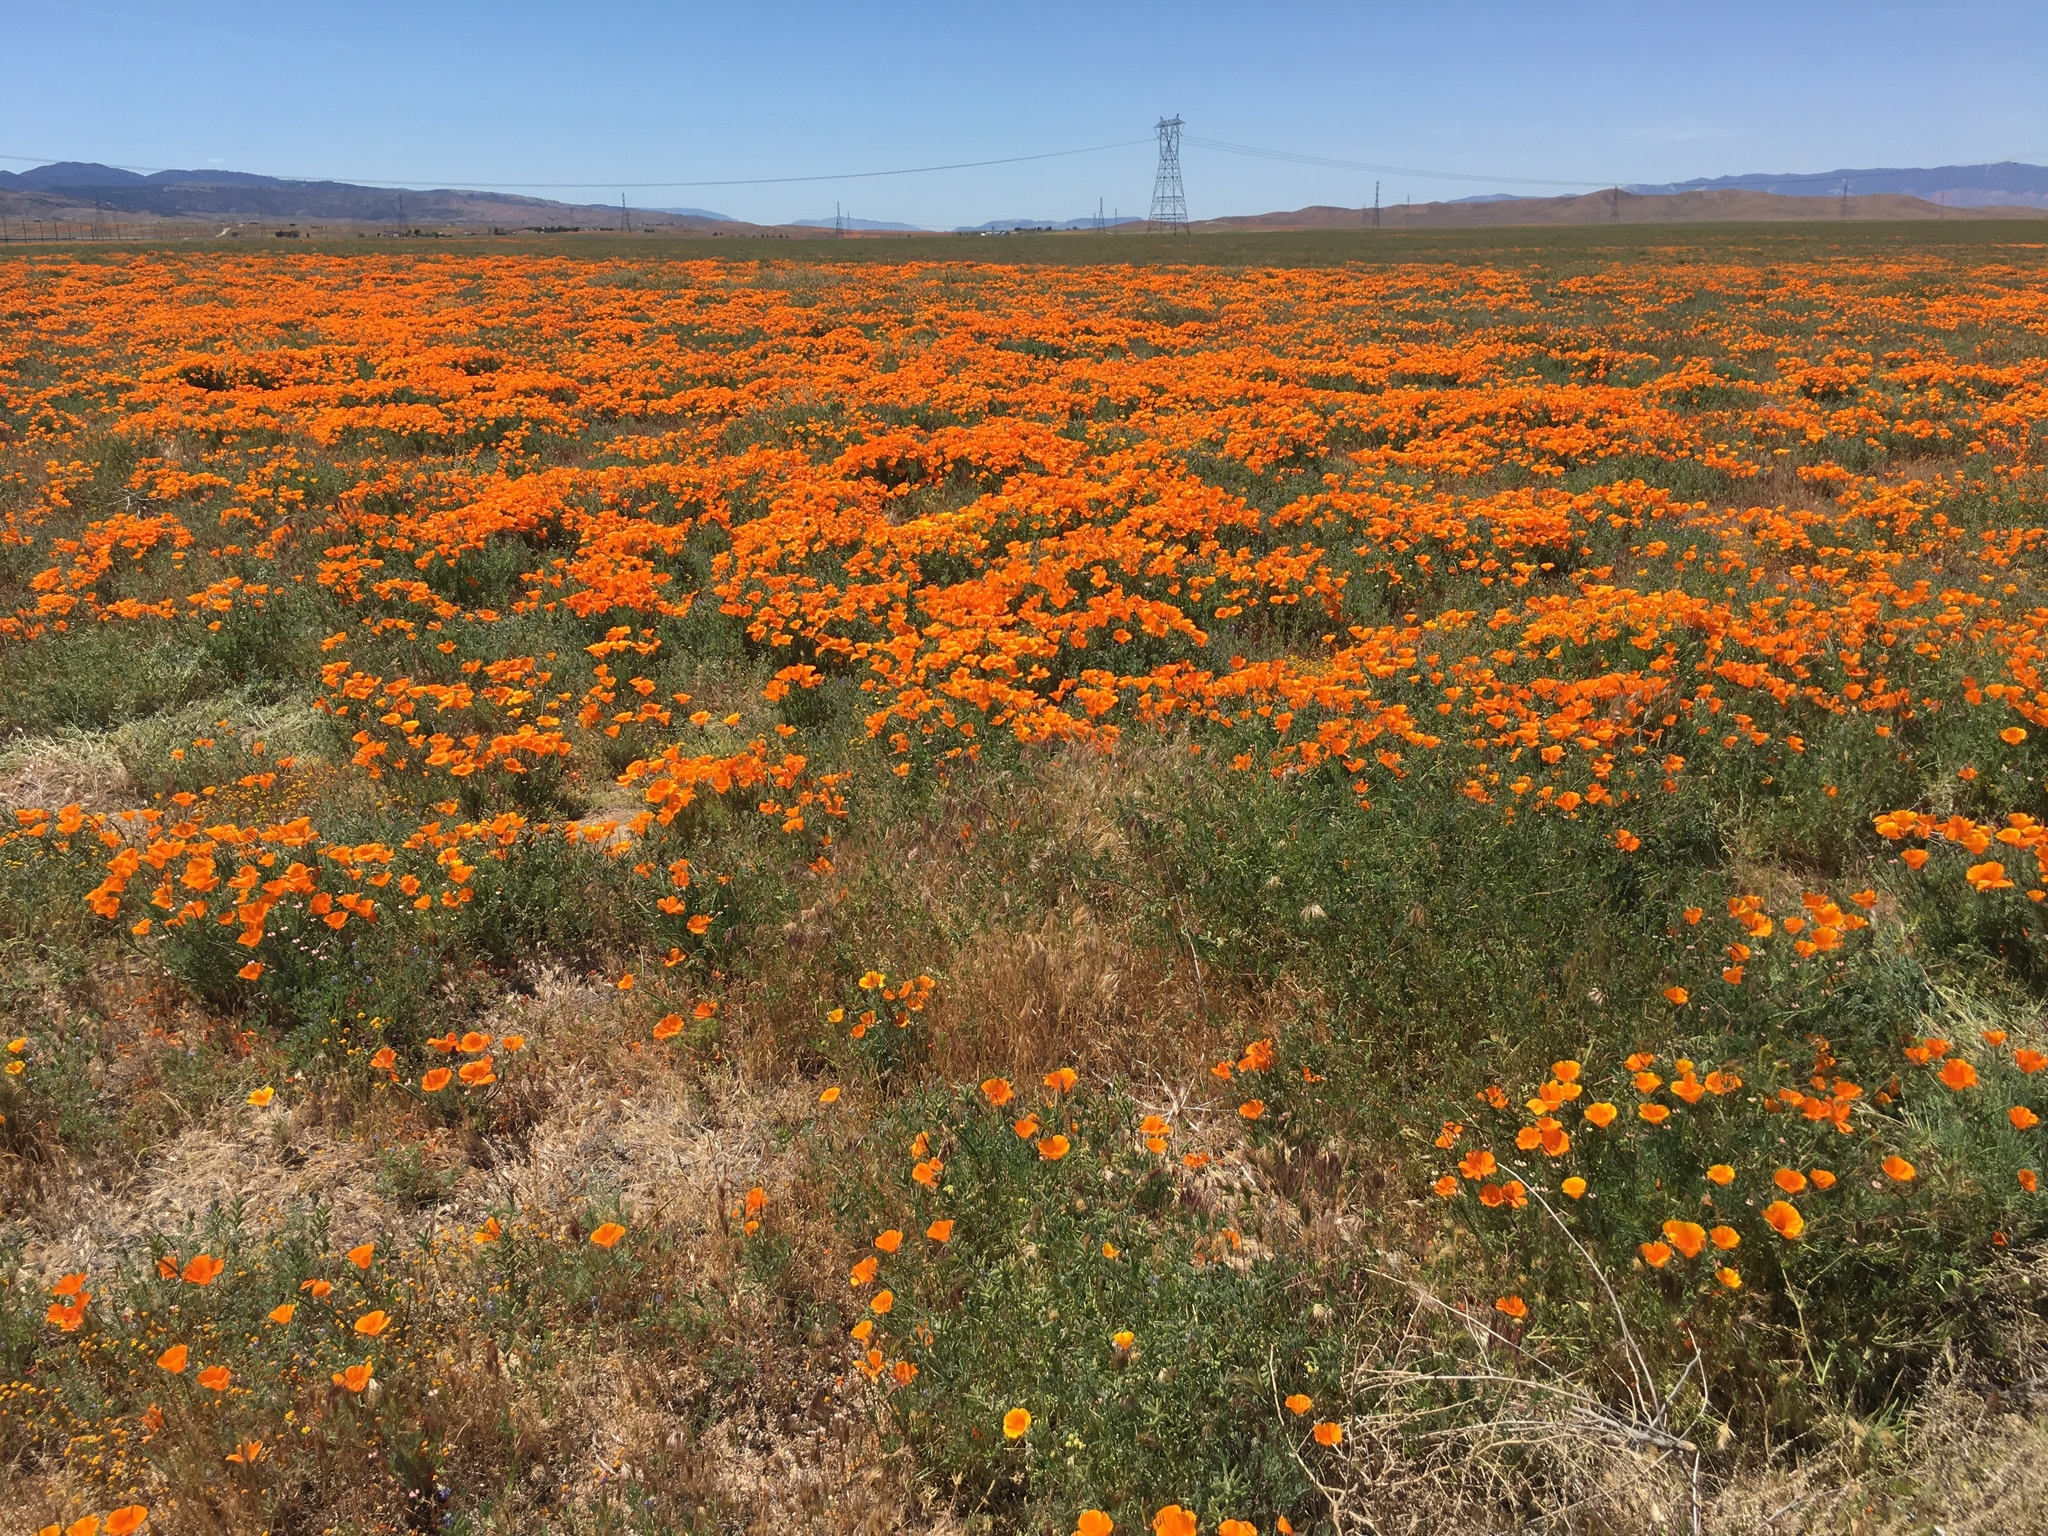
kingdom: Plantae
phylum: Tracheophyta
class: Magnoliopsida
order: Ranunculales
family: Papaveraceae
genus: Eschscholzia
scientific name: Eschscholzia californica
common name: California poppy
